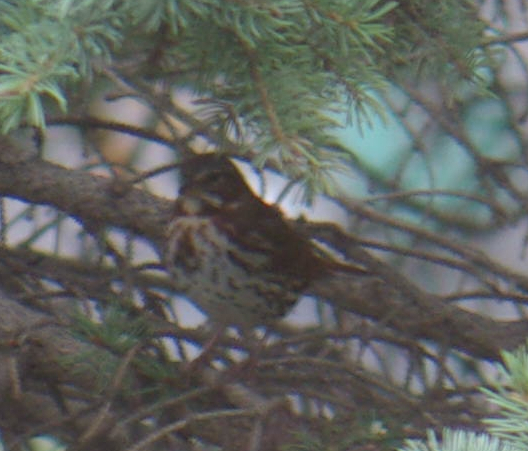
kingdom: Animalia
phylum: Chordata
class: Aves
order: Passeriformes
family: Passerellidae
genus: Passerella
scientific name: Passerella iliaca
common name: Fox sparrow
